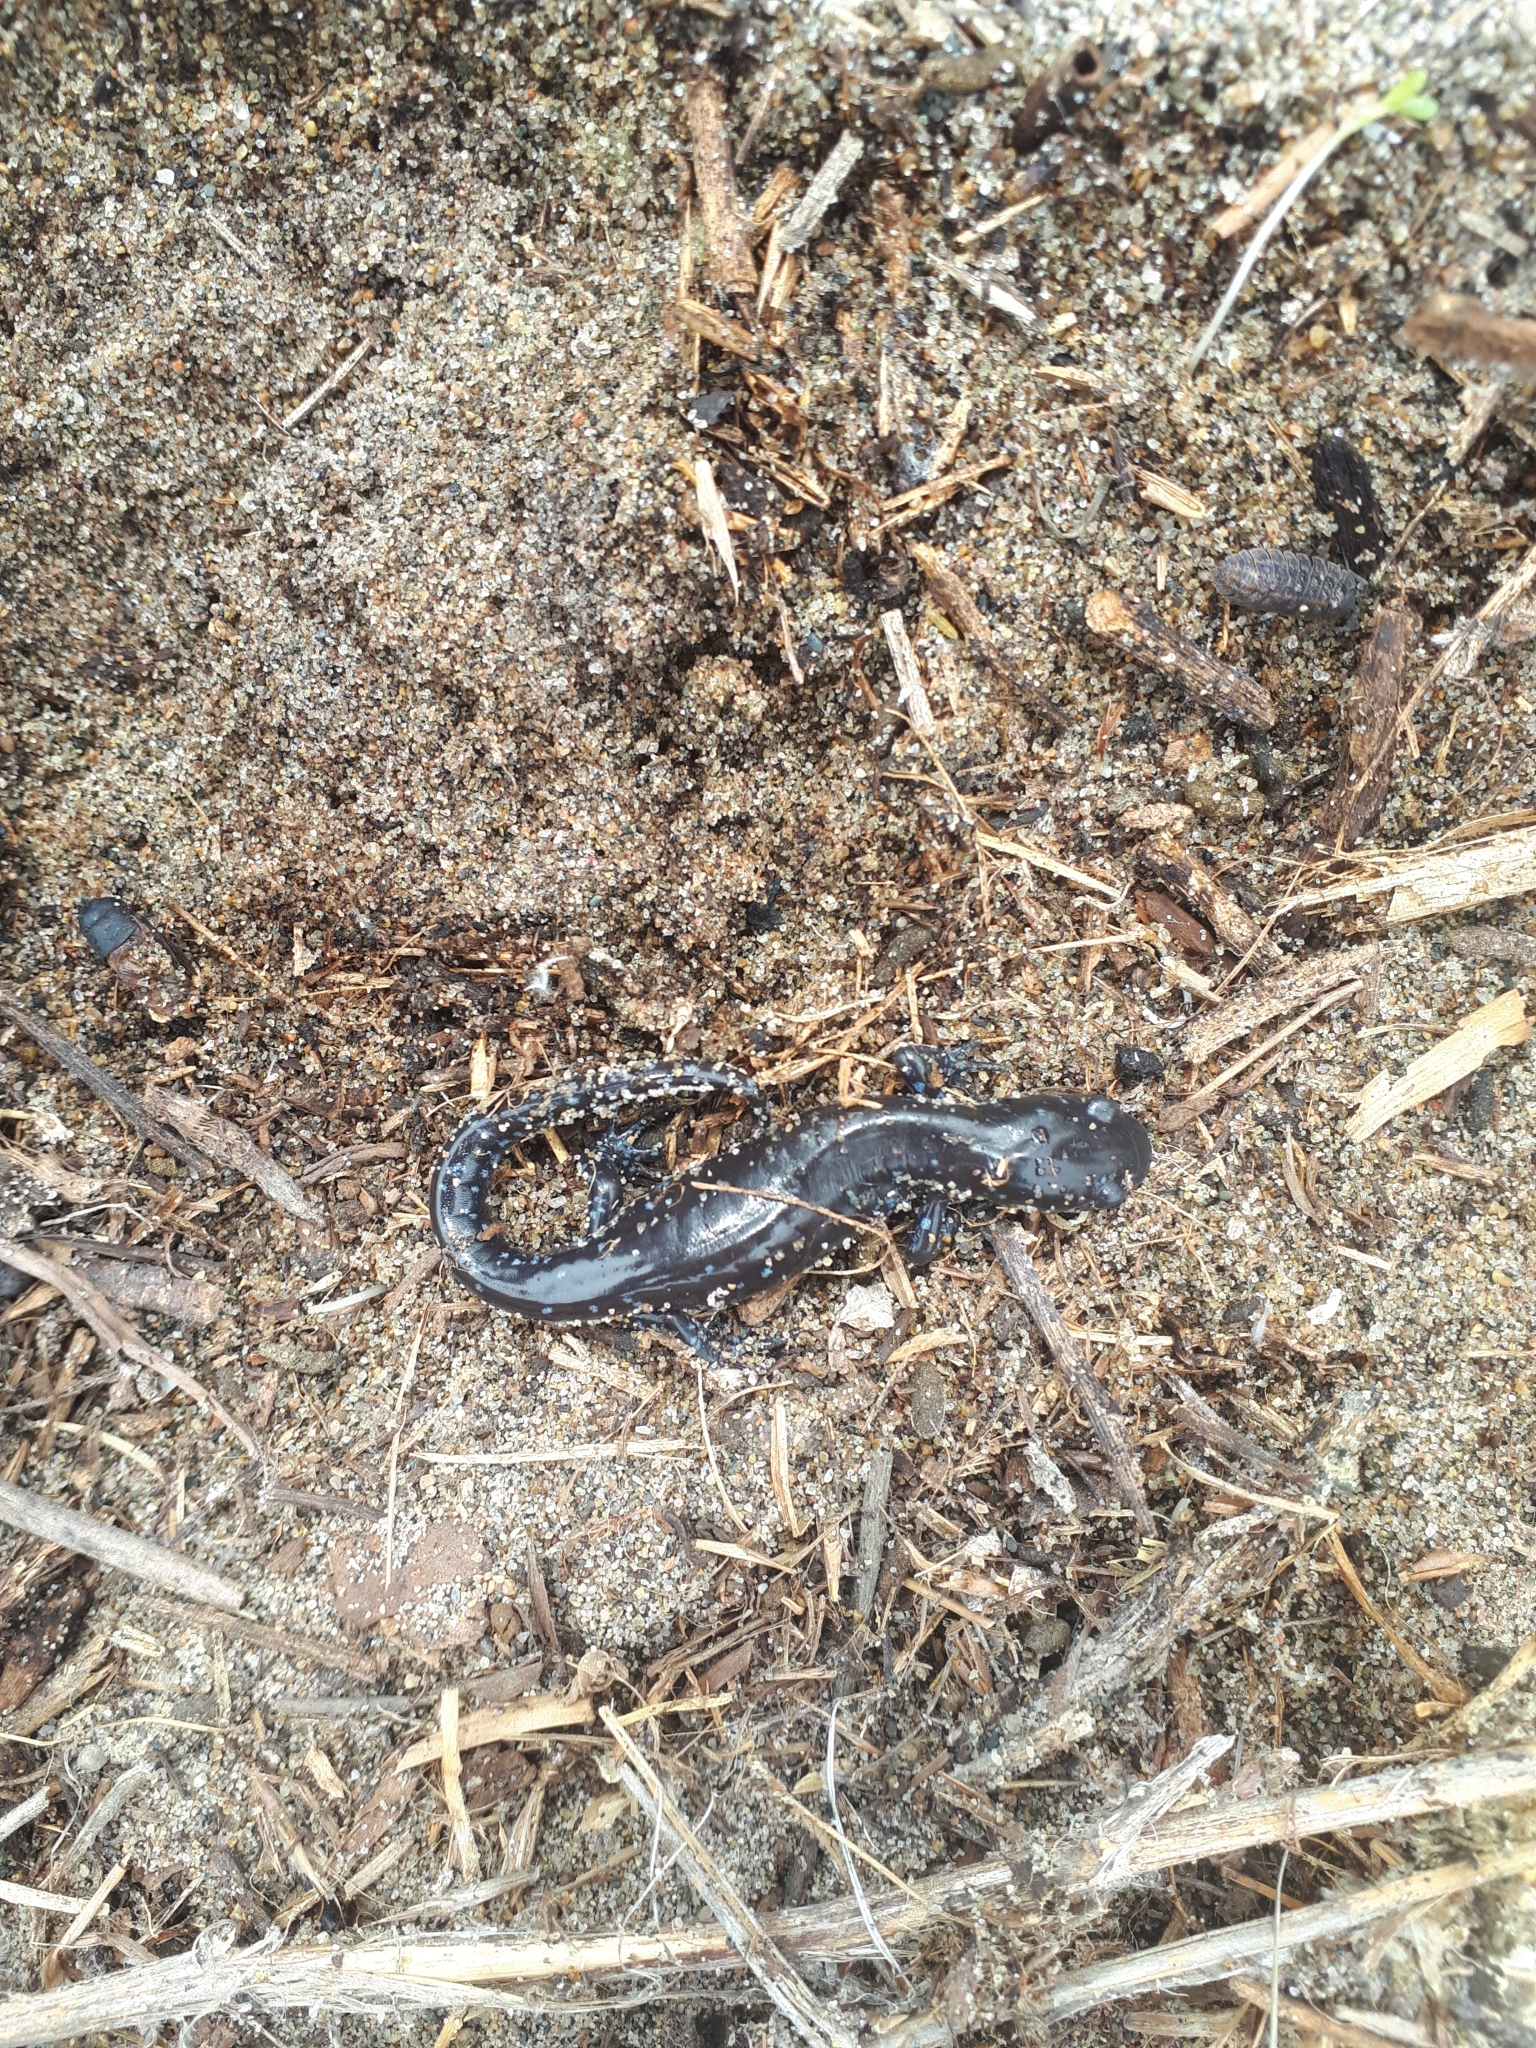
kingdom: Animalia
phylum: Chordata
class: Amphibia
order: Caudata
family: Ambystomatidae
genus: Ambystoma
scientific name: Ambystoma laterale
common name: Blue-spotted salamander
